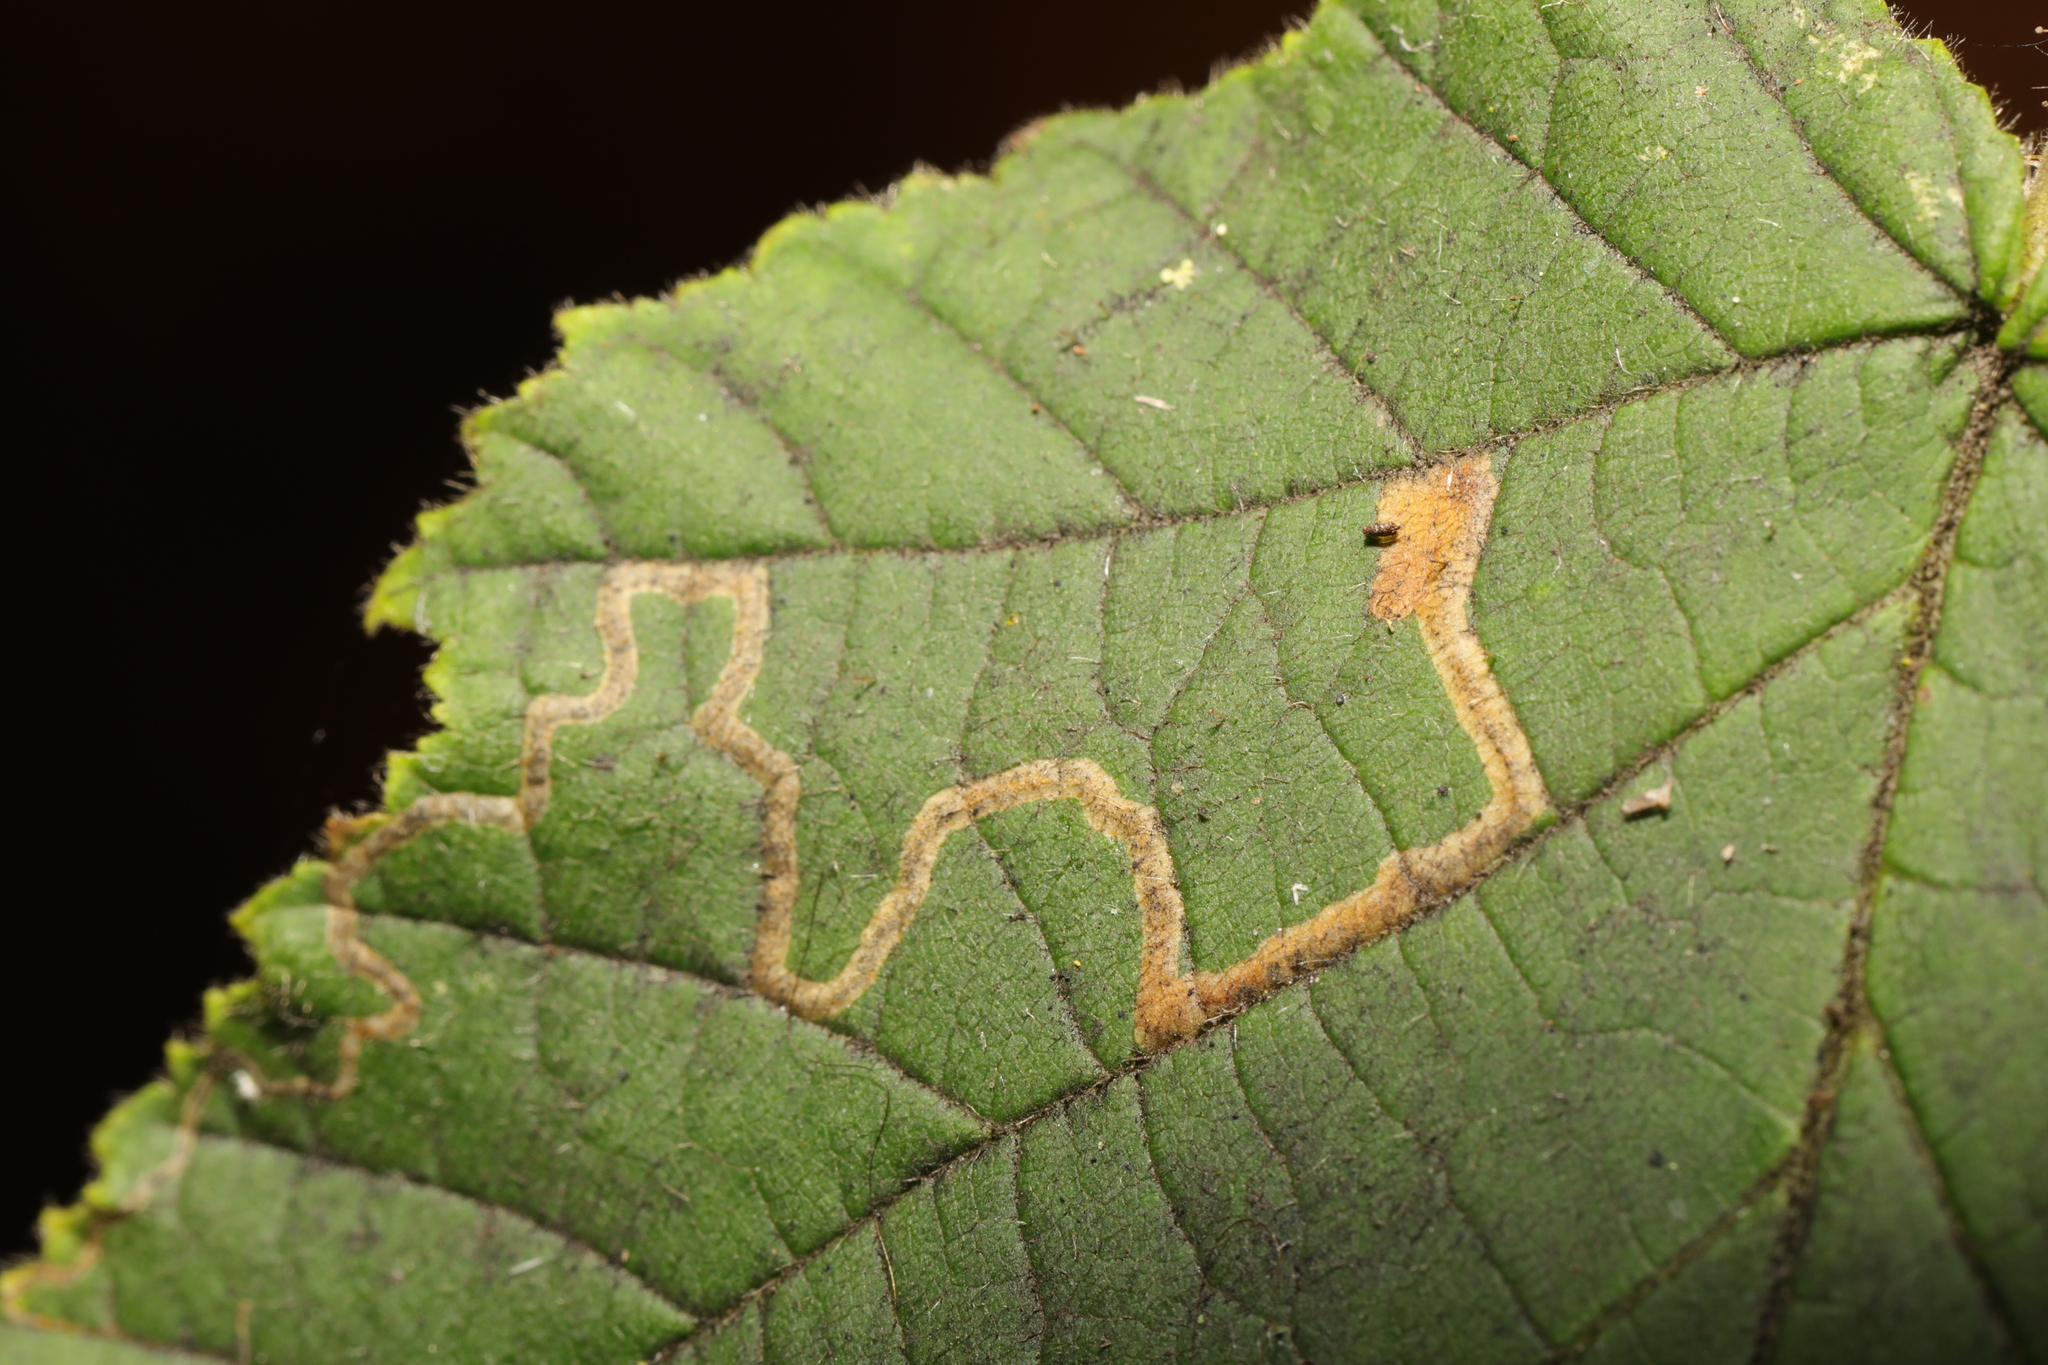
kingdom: Animalia
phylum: Arthropoda
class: Insecta
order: Lepidoptera
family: Nepticulidae
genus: Stigmella
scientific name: Stigmella microtheriella
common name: Nut-tree pigmy
